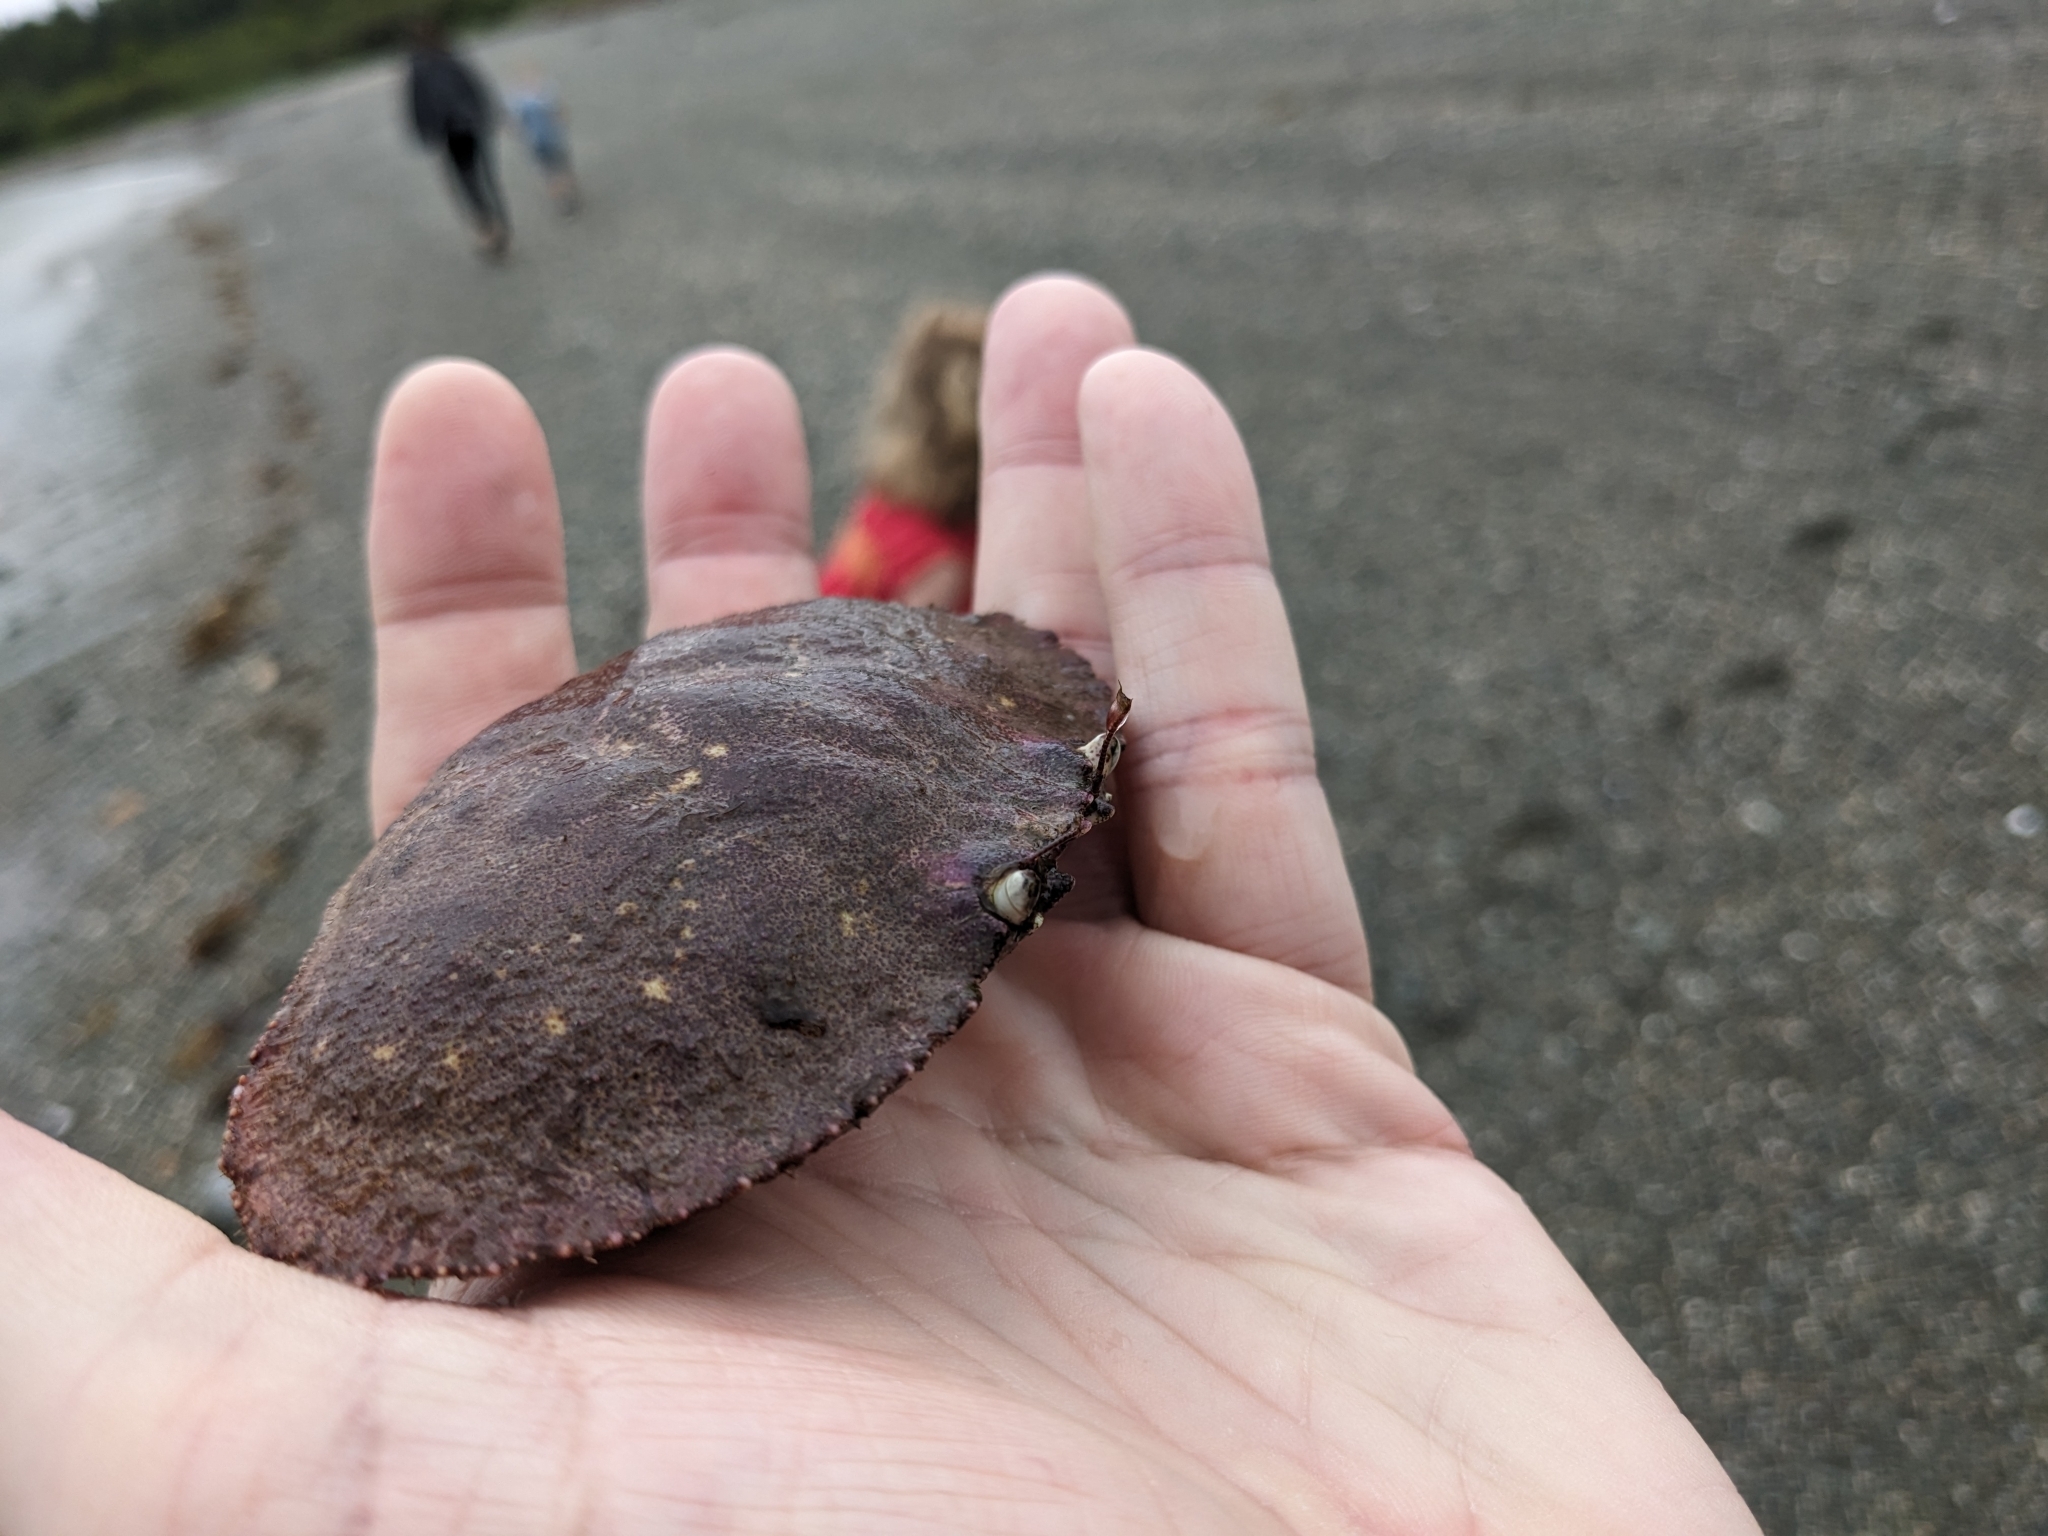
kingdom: Animalia
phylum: Arthropoda
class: Malacostraca
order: Decapoda
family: Cancridae
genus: Cancer
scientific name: Cancer borealis
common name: Jonah crab
